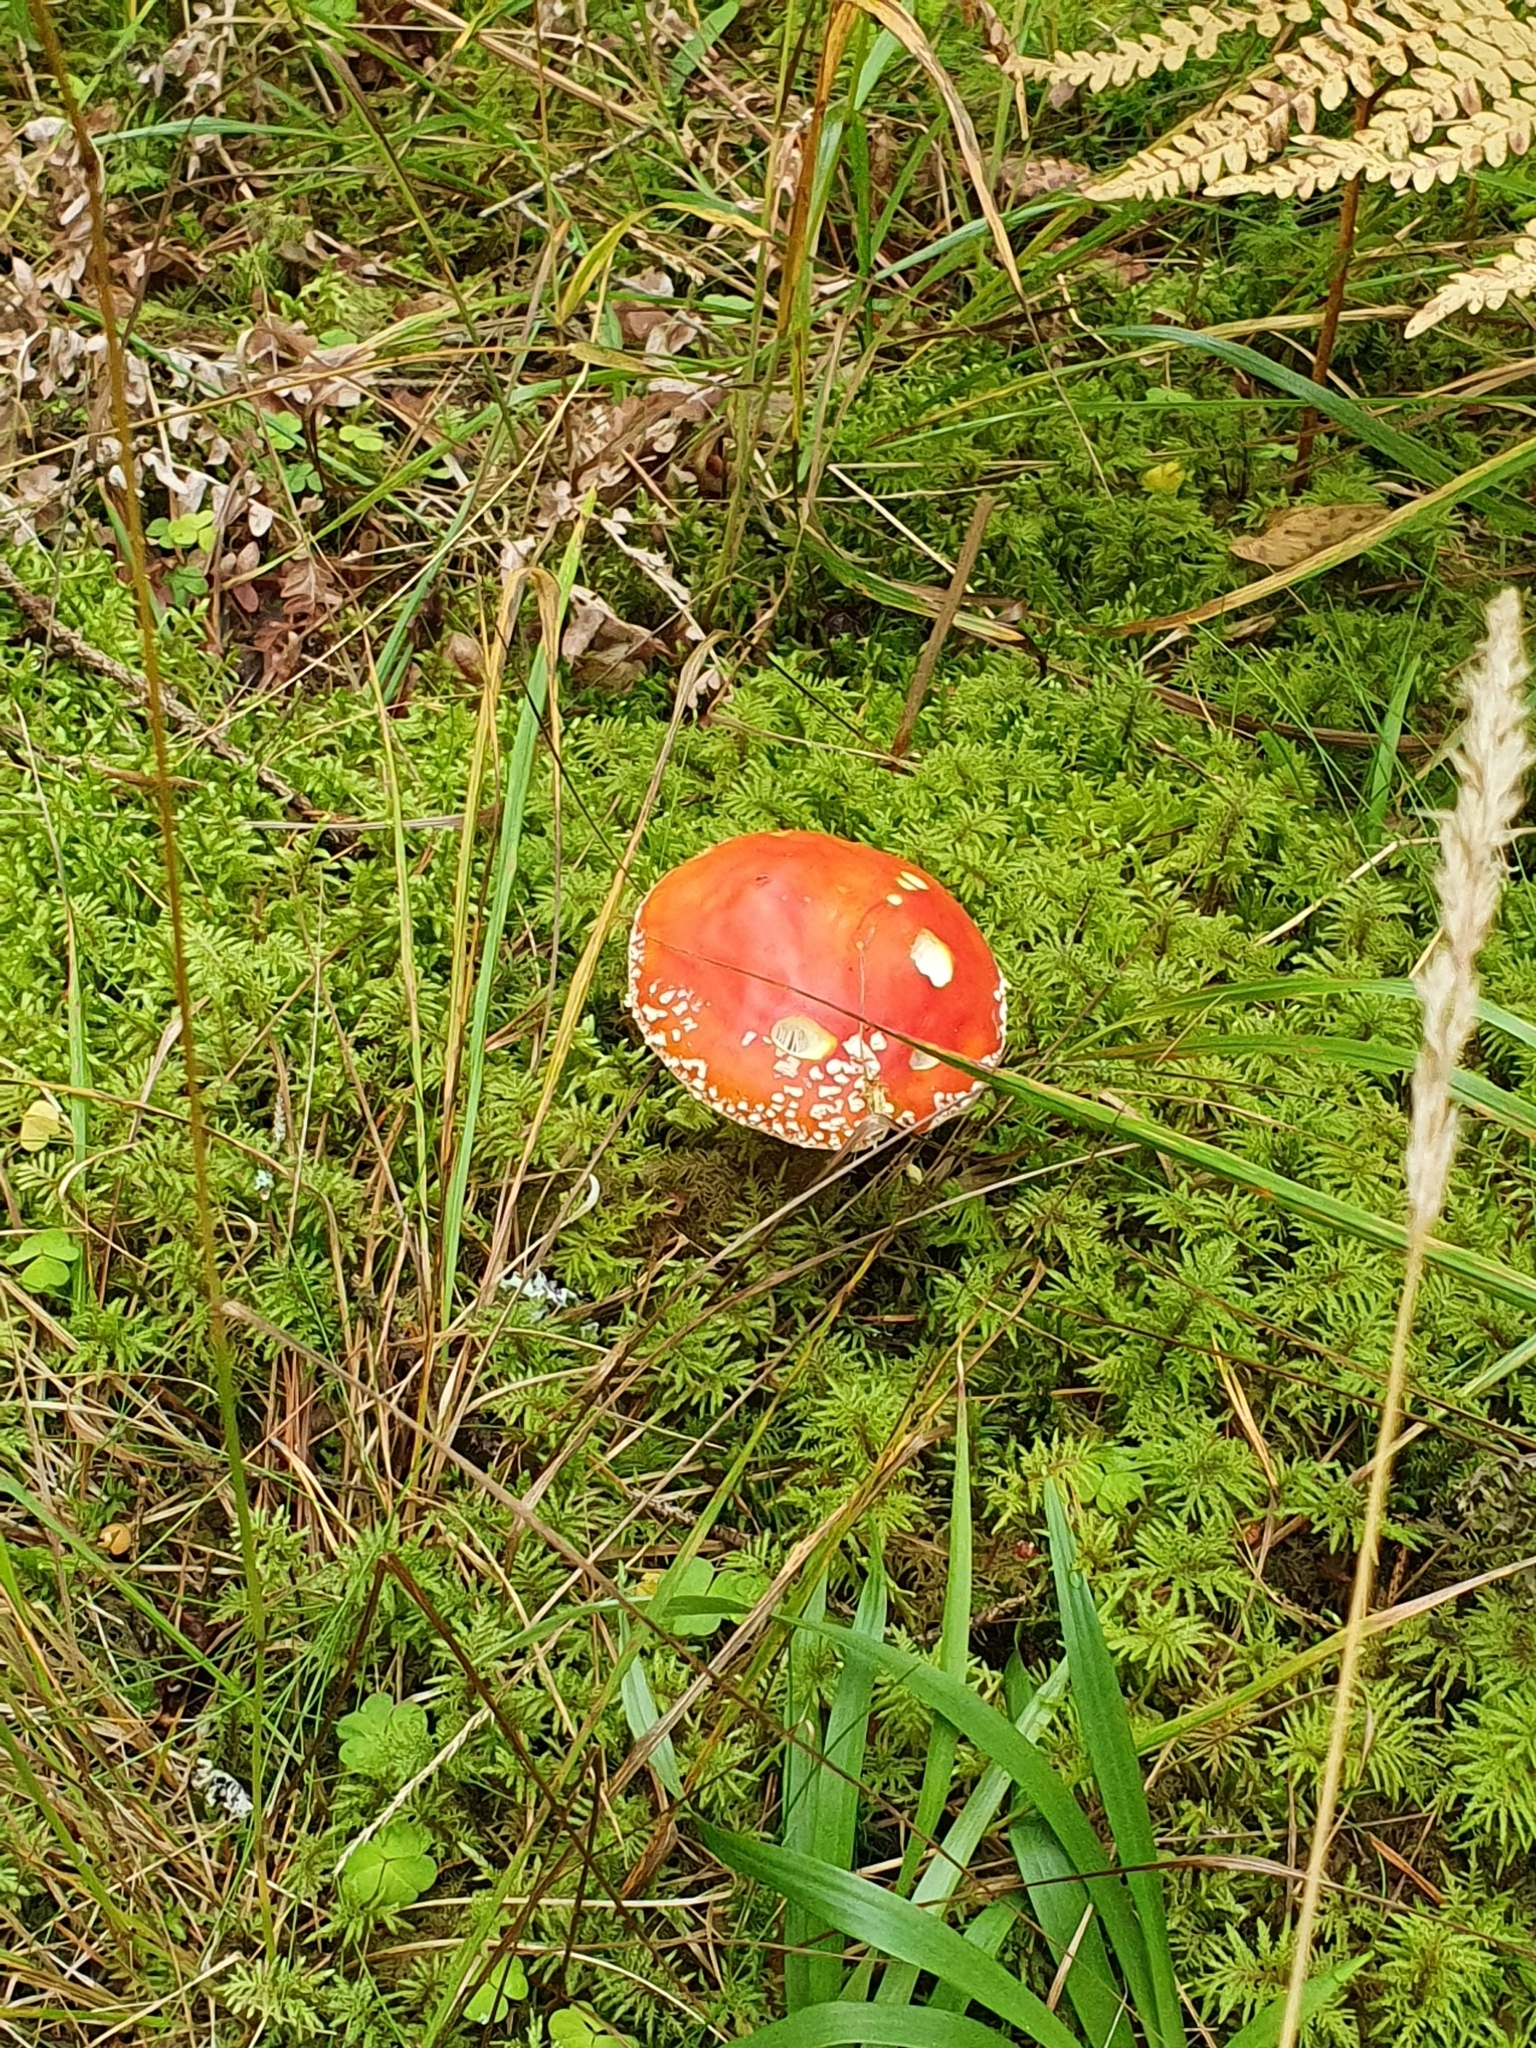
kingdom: Fungi
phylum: Basidiomycota
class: Agaricomycetes
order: Agaricales
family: Amanitaceae
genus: Amanita
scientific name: Amanita muscaria
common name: Fly agaric
